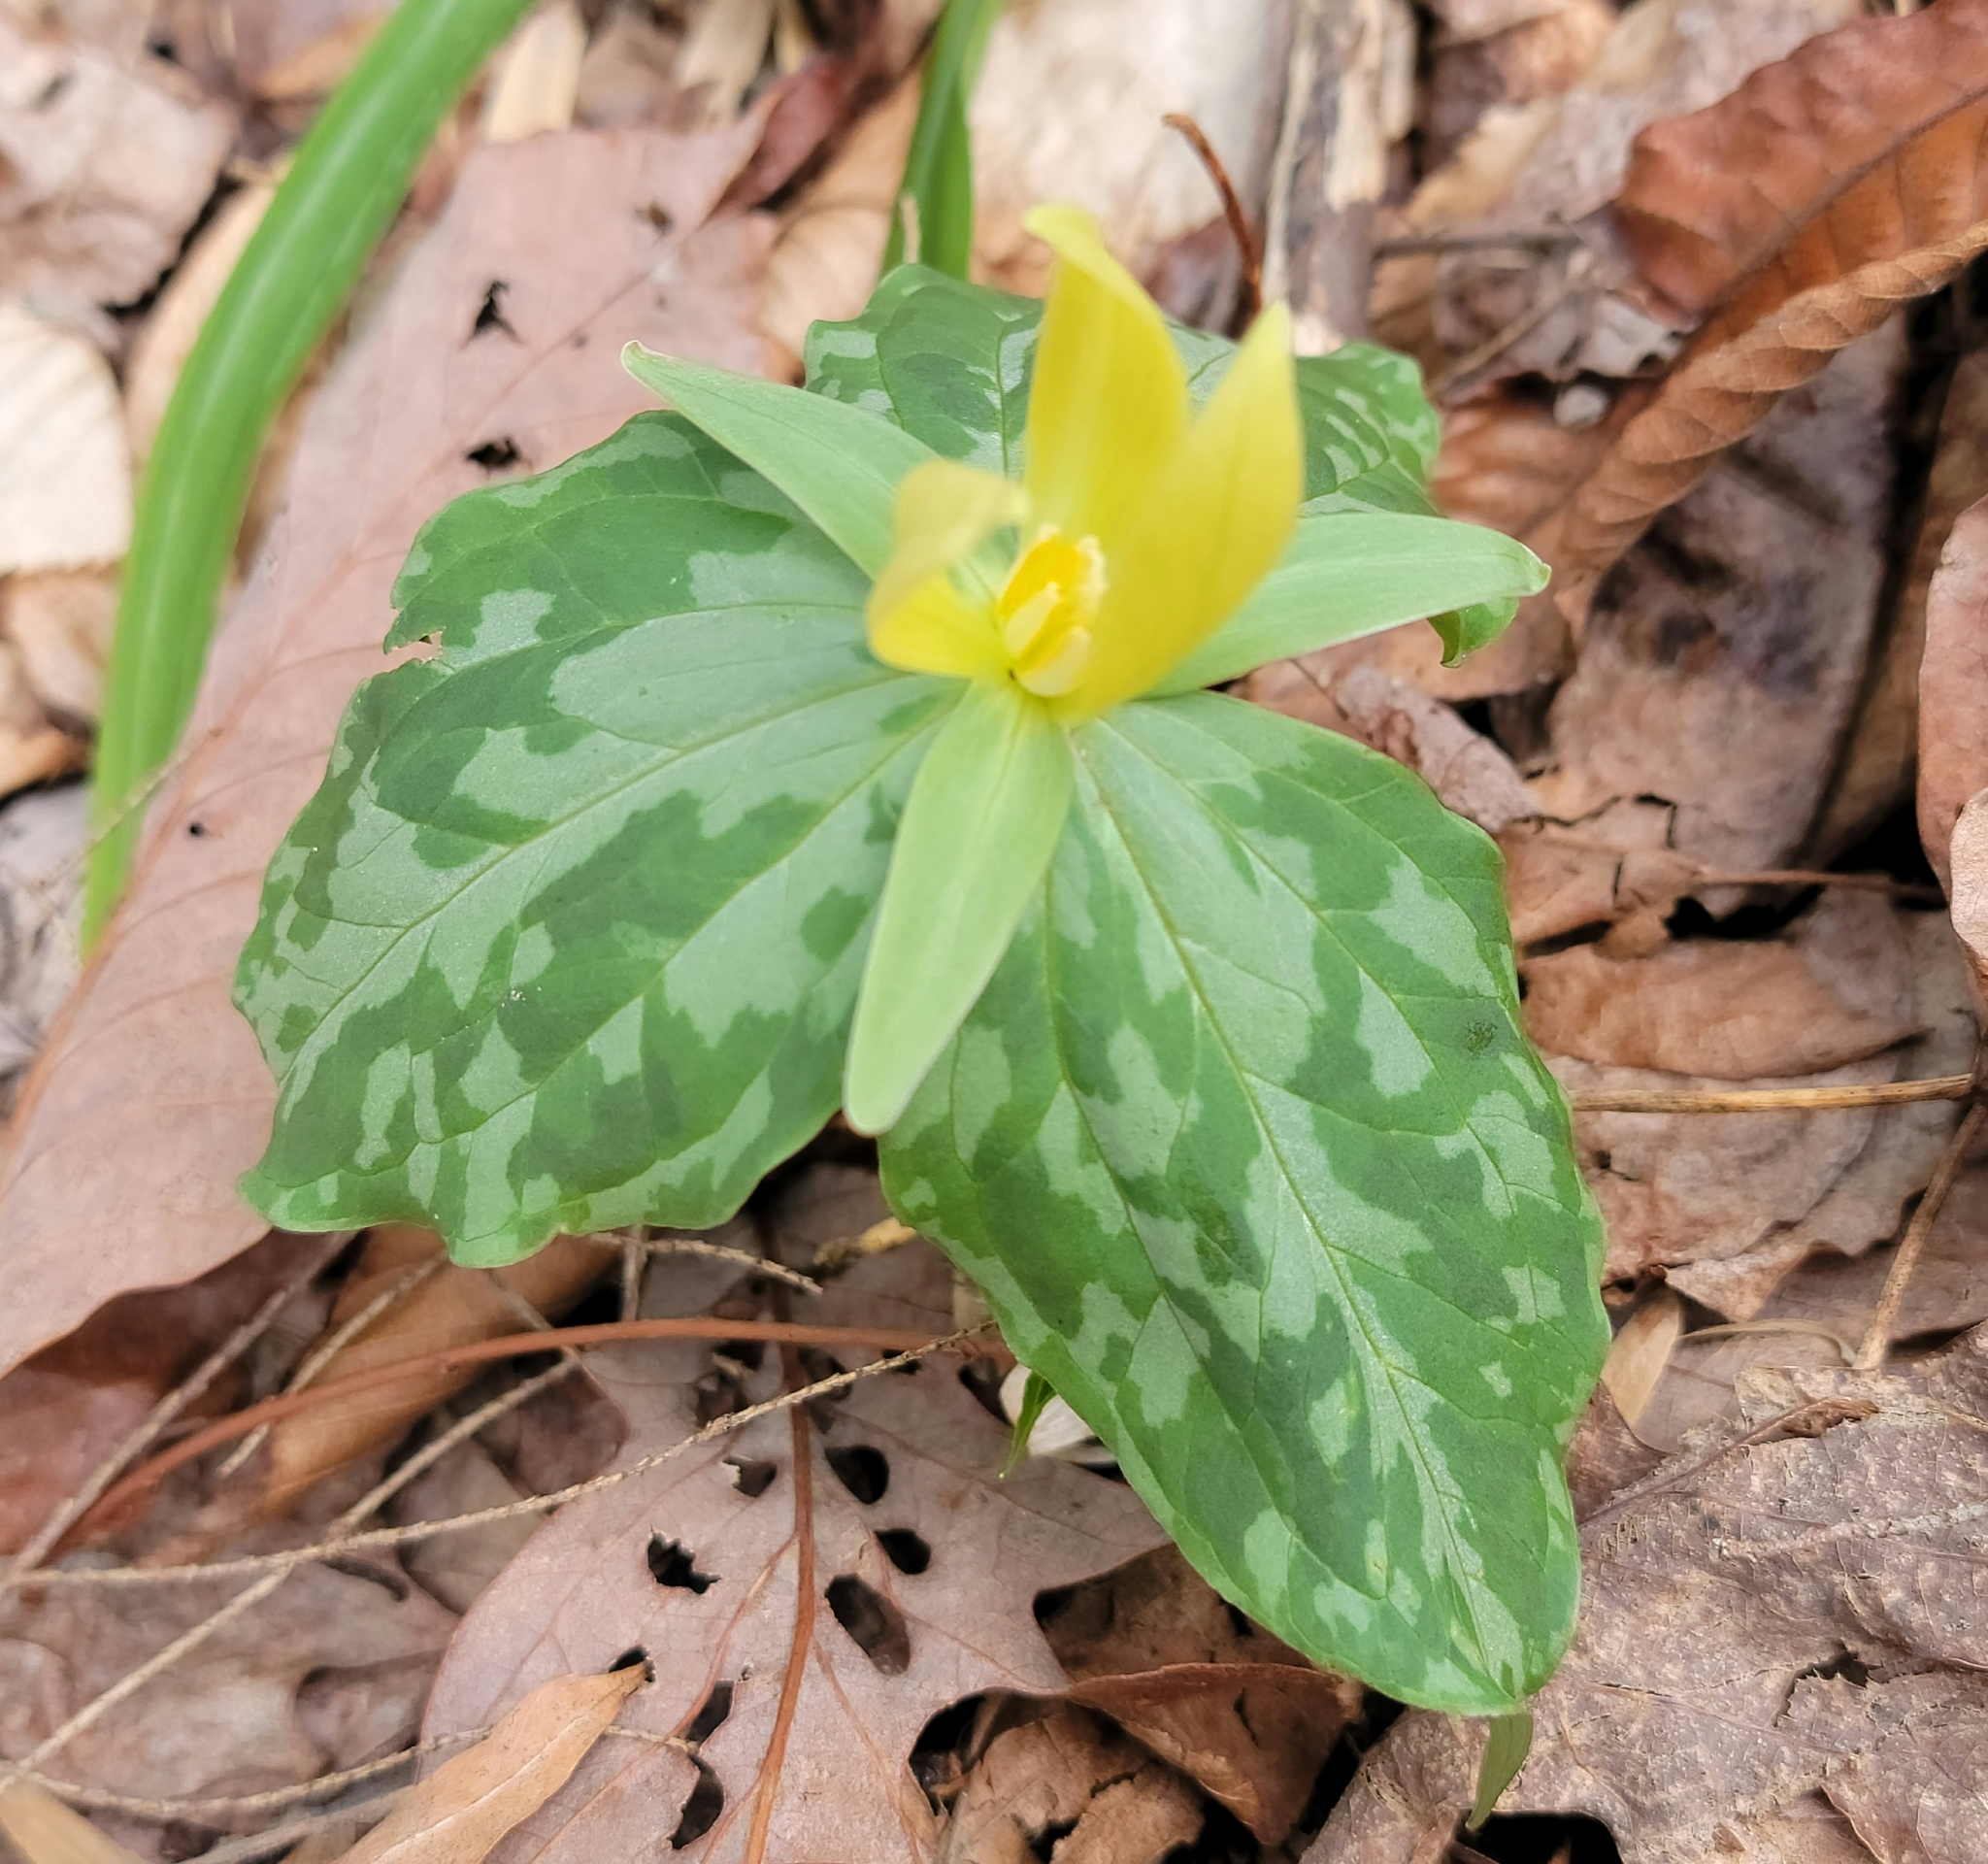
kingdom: Plantae
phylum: Tracheophyta
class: Liliopsida
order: Liliales
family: Melanthiaceae
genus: Trillium
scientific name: Trillium luteum
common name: Wax trillium
